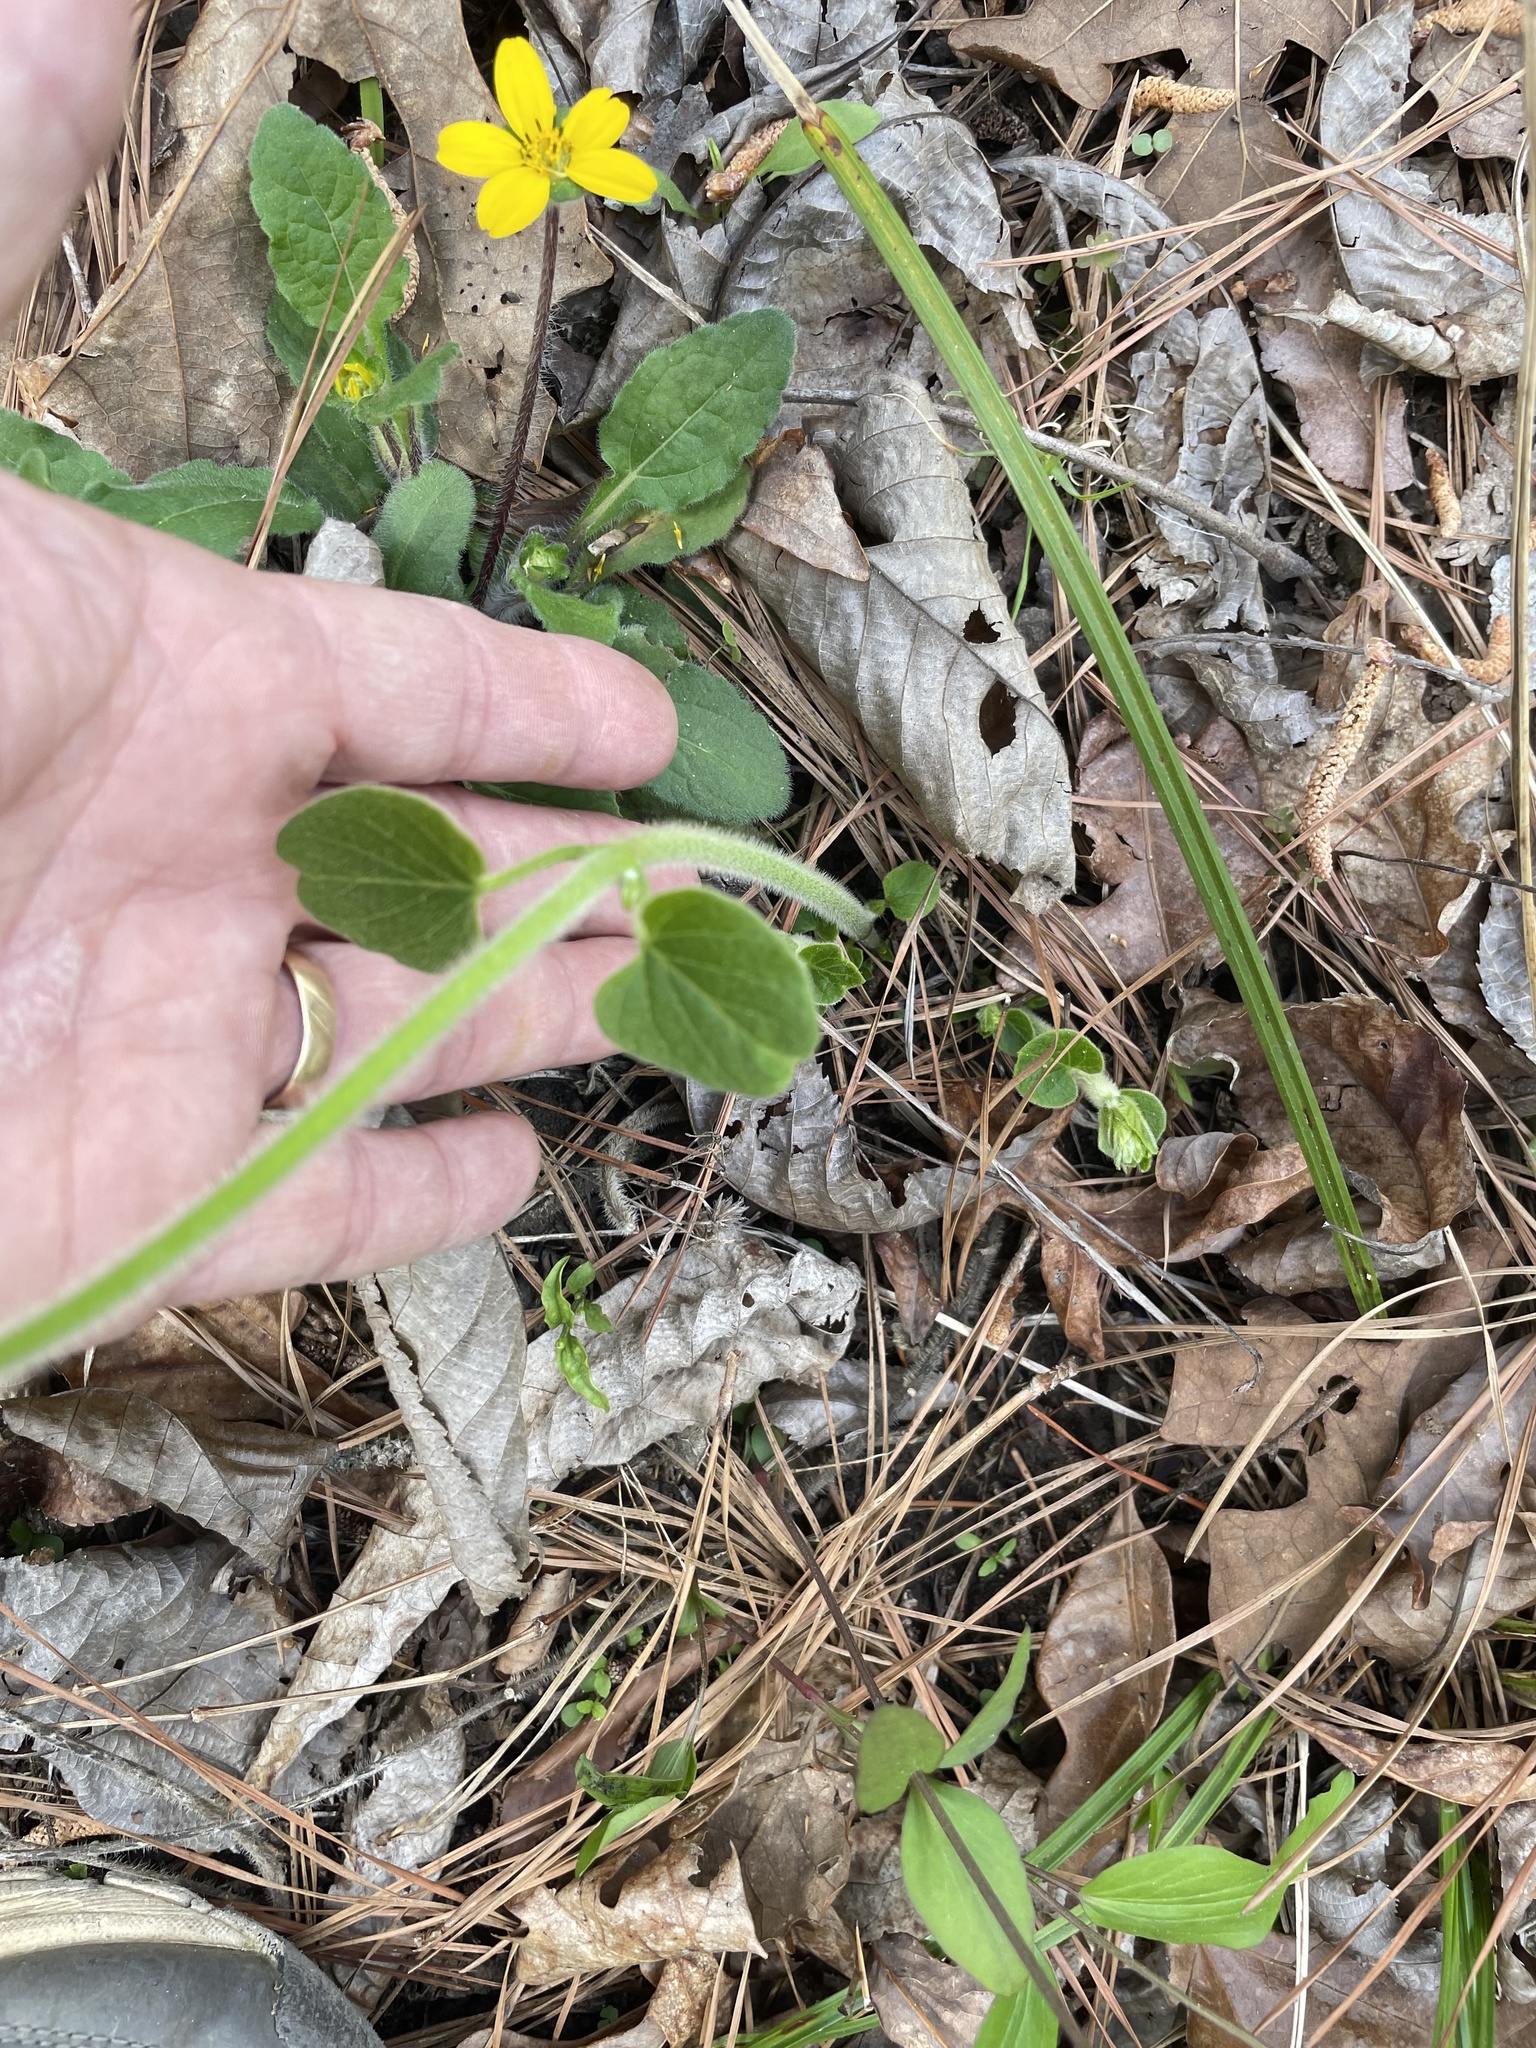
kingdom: Plantae
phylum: Tracheophyta
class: Magnoliopsida
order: Gentianales
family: Apocynaceae
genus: Matelea
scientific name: Matelea carolinensis
